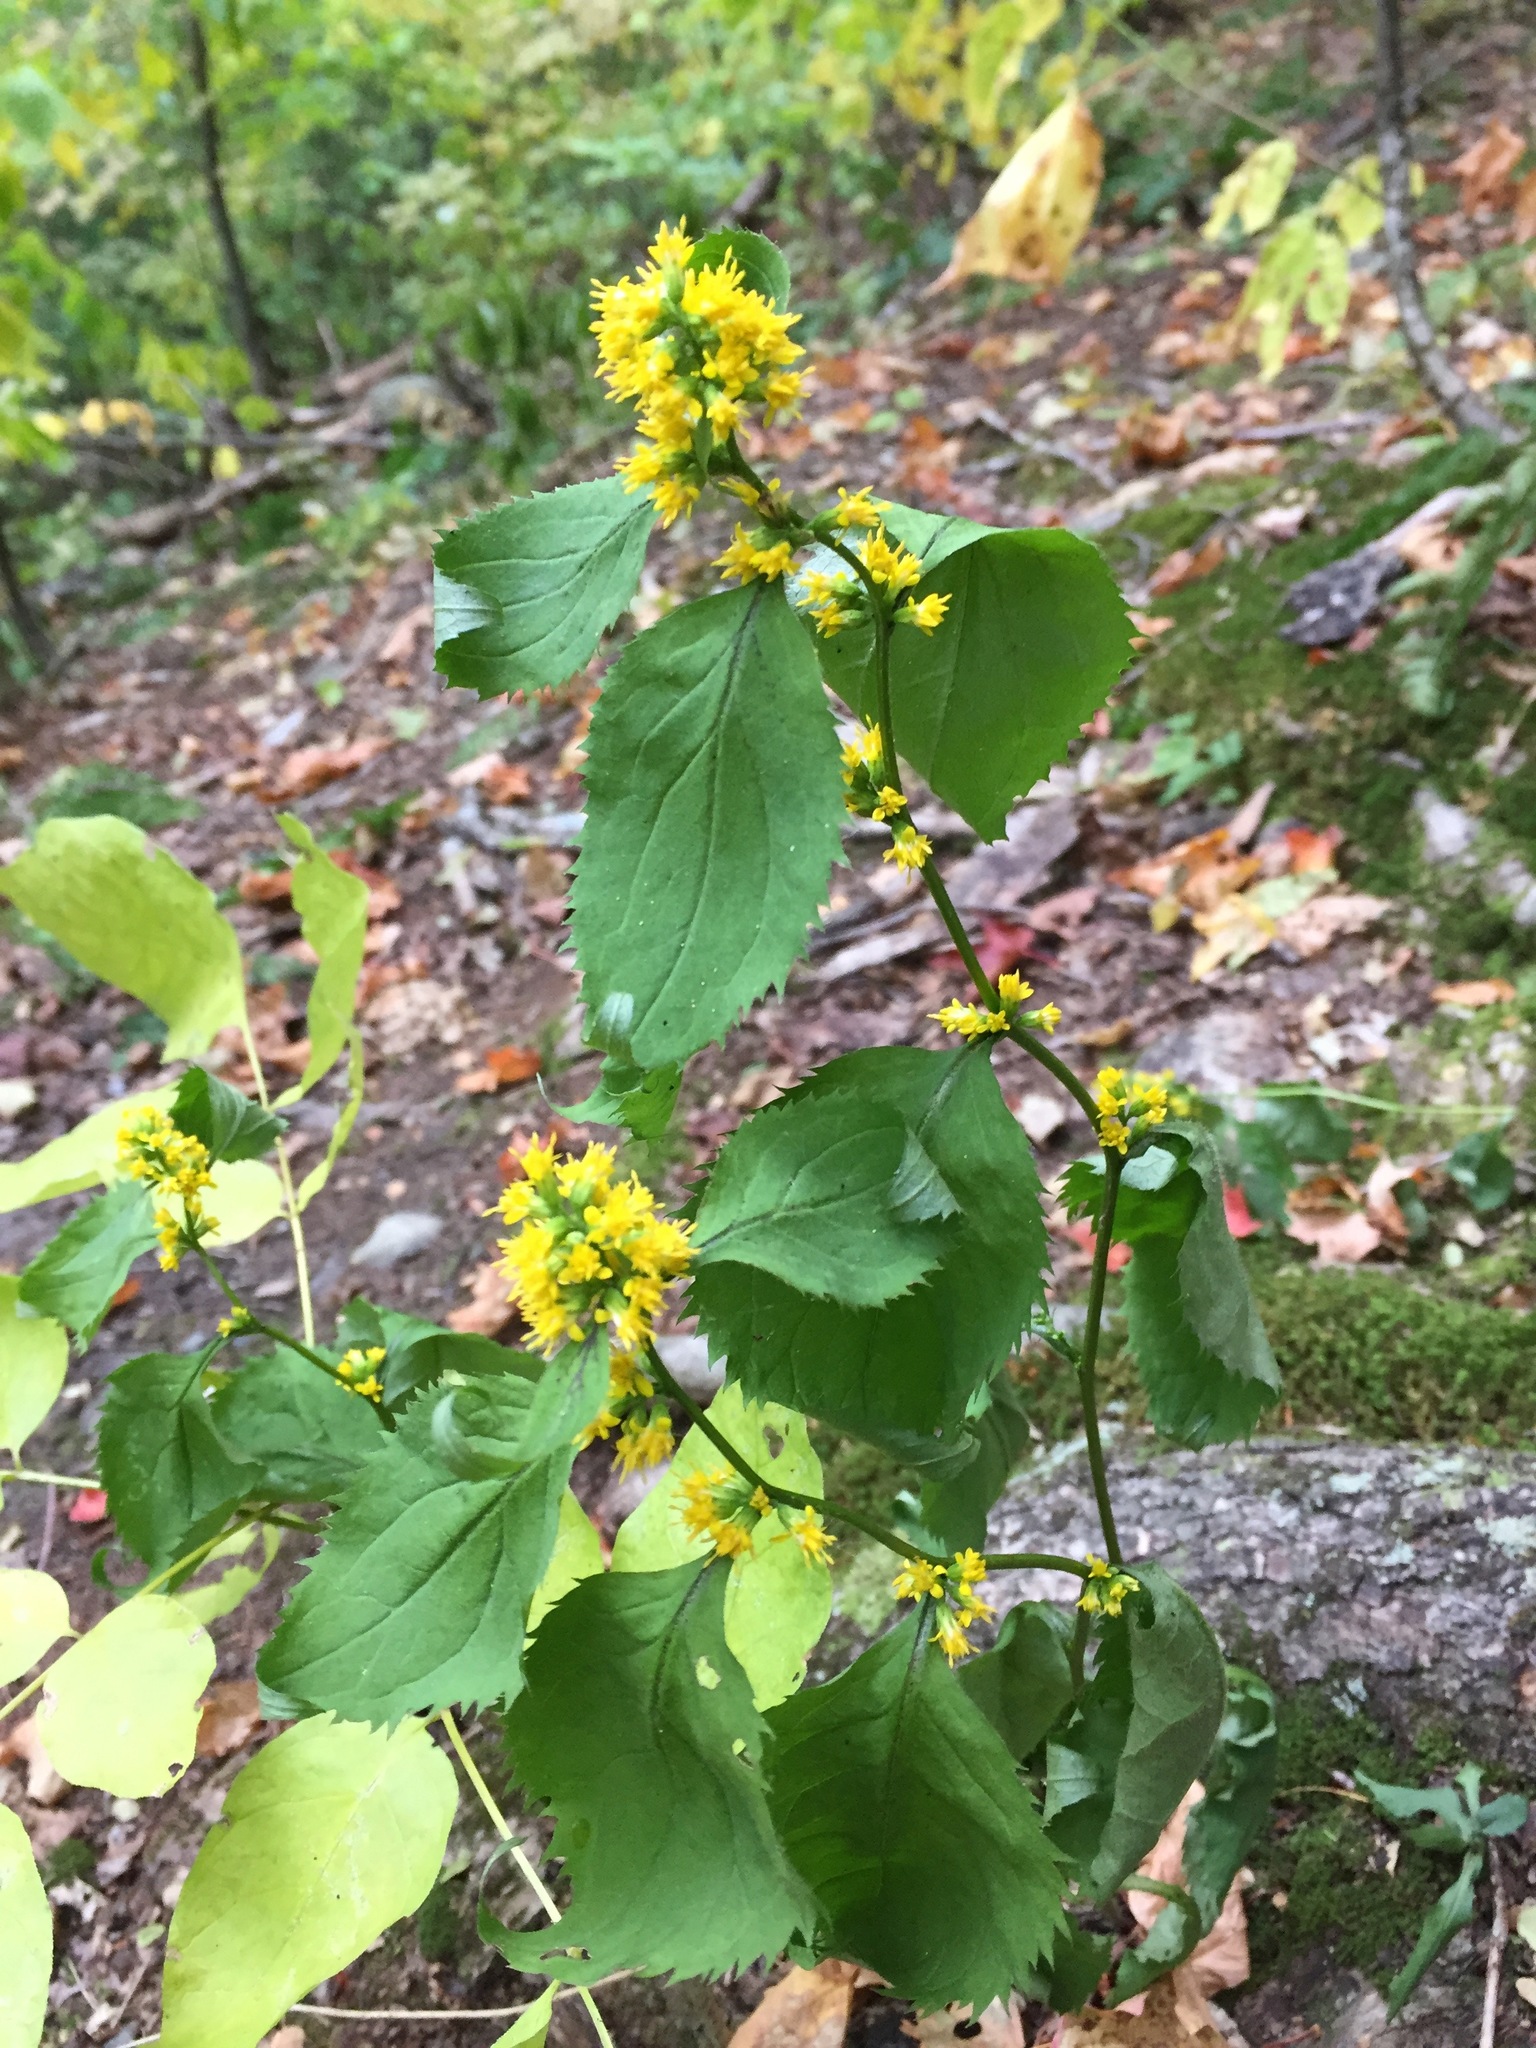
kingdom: Plantae
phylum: Tracheophyta
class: Magnoliopsida
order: Asterales
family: Asteraceae
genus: Solidago
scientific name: Solidago flexicaulis
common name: Zig-zag goldenrod
